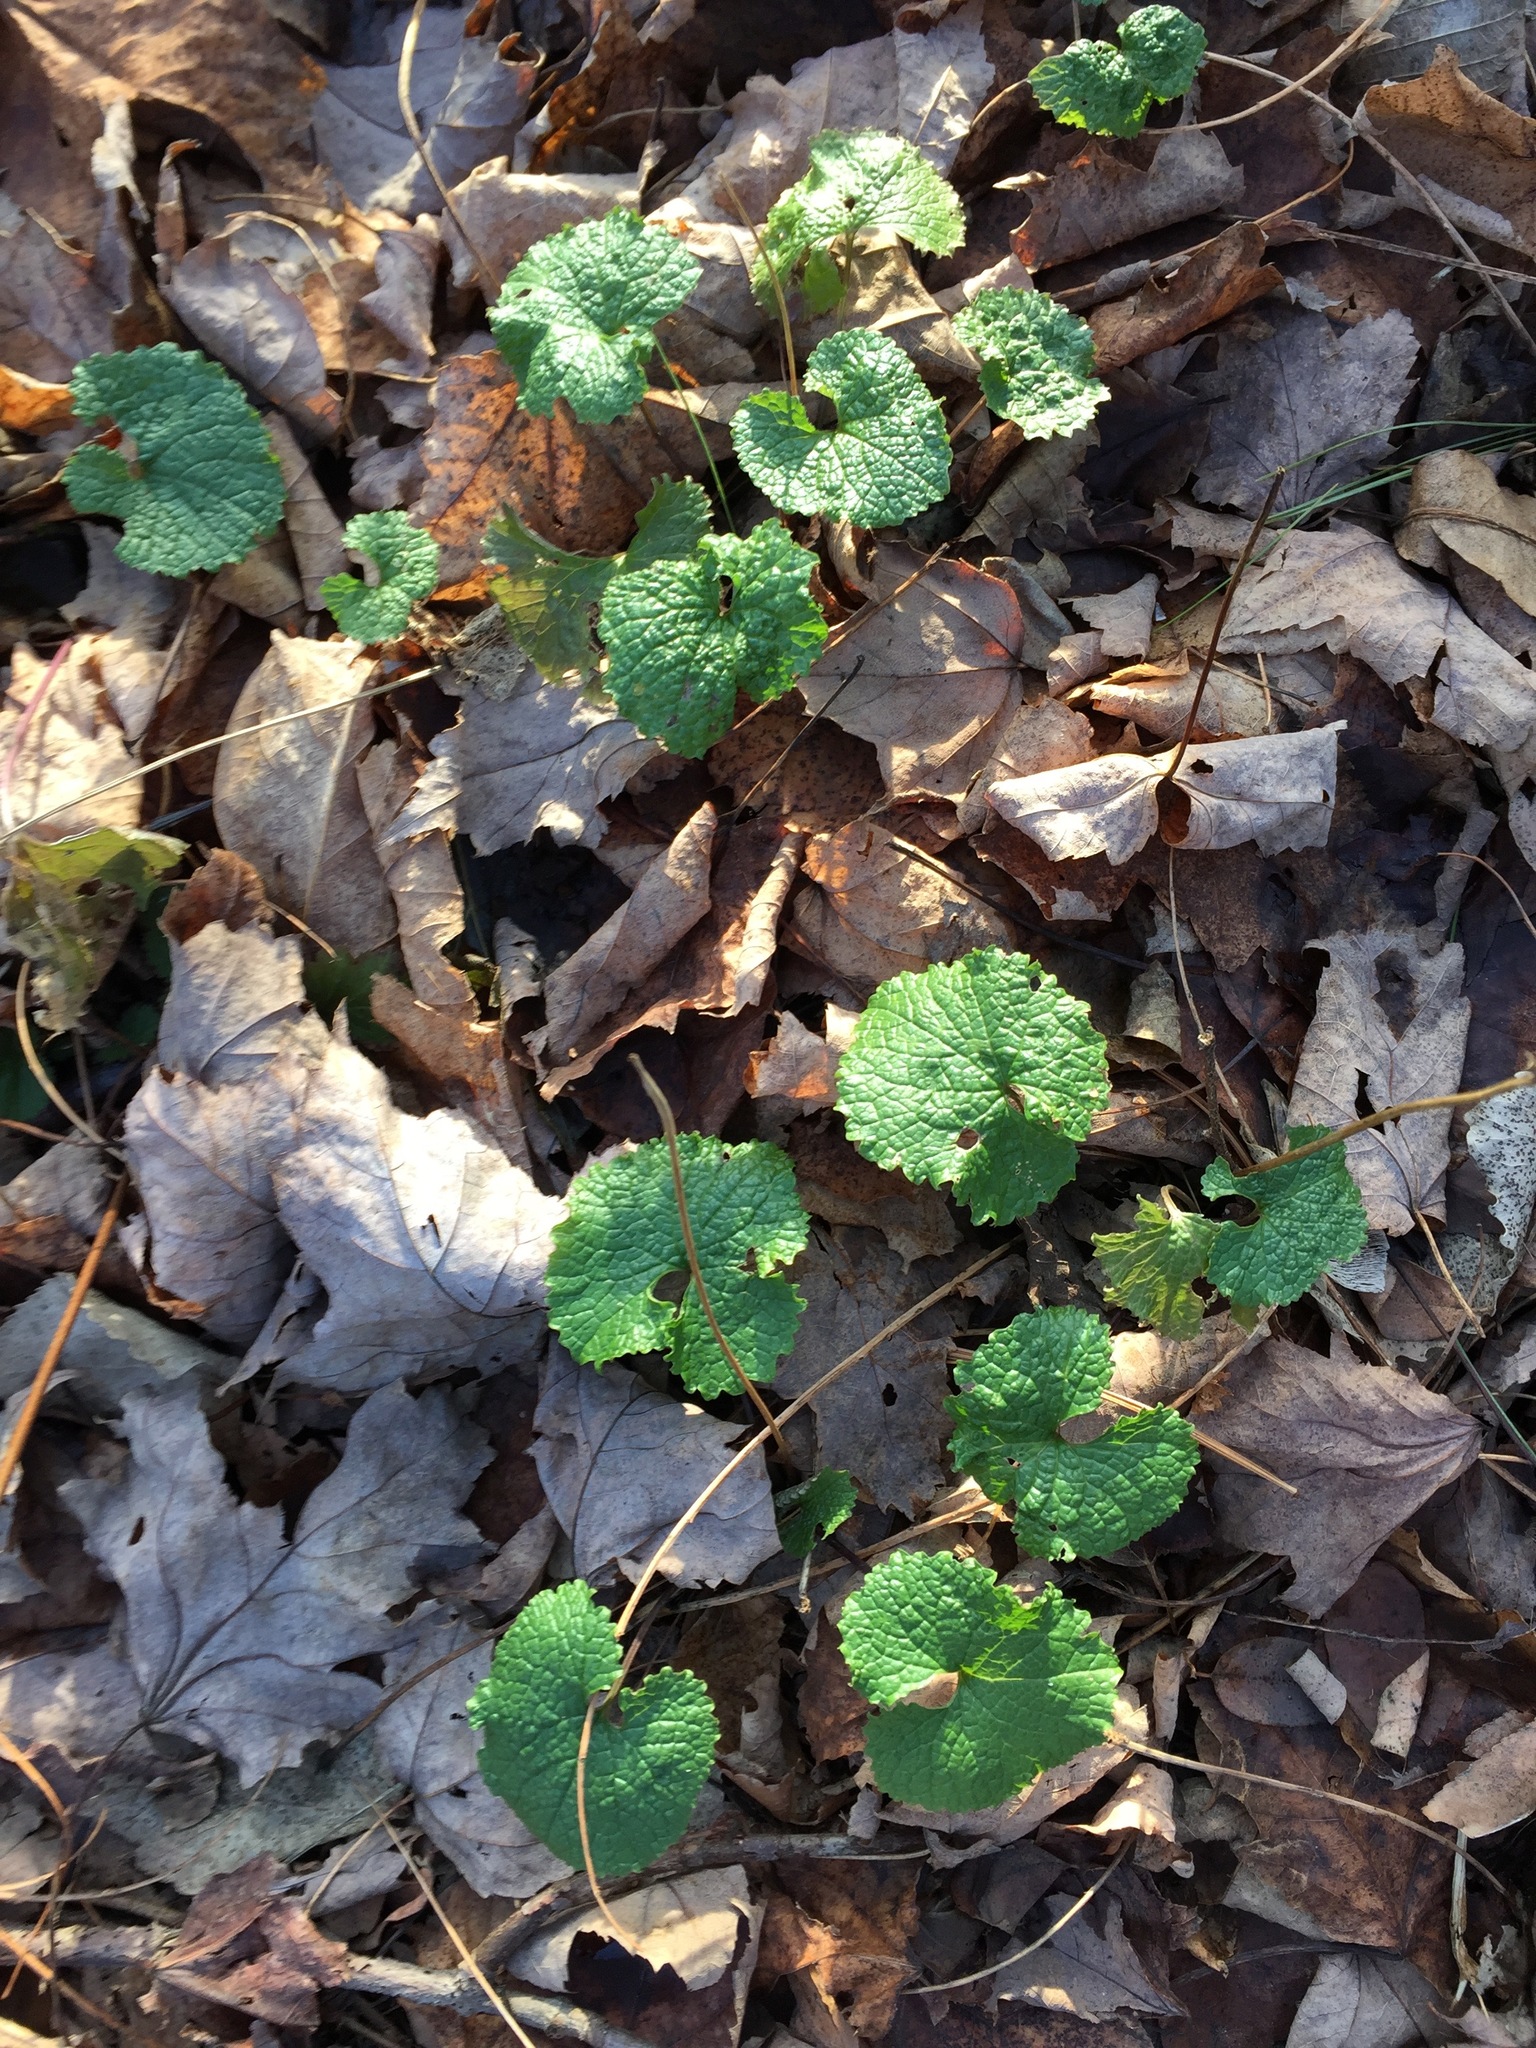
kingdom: Plantae
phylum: Tracheophyta
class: Magnoliopsida
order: Brassicales
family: Brassicaceae
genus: Alliaria
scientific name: Alliaria petiolata
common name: Garlic mustard
